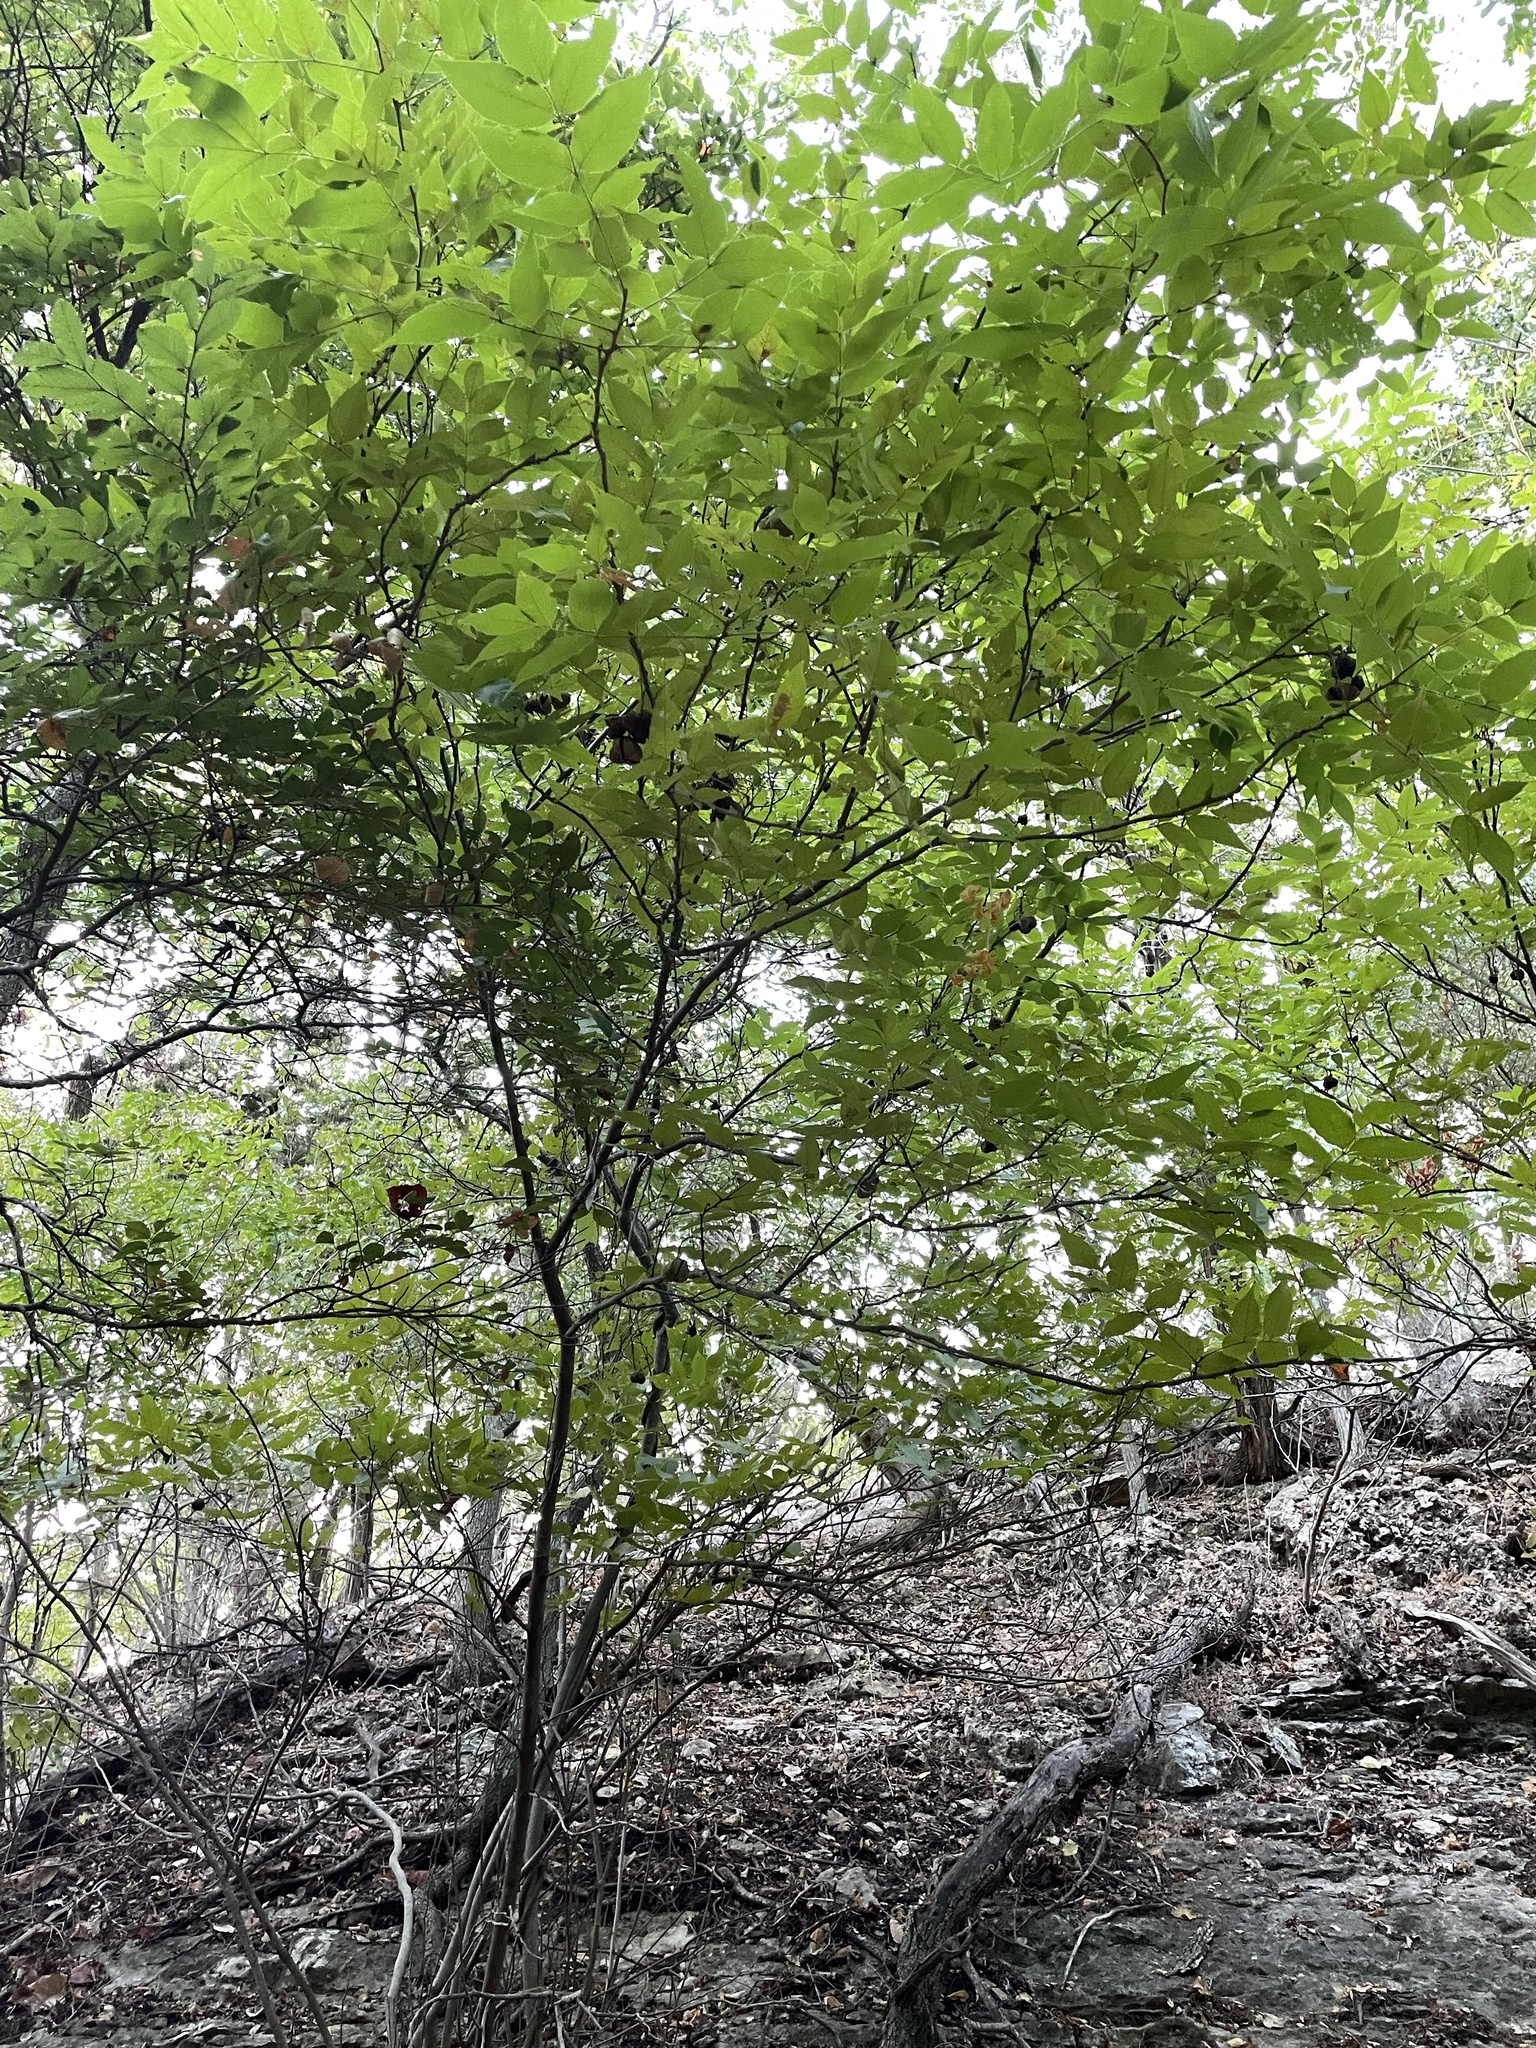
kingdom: Plantae
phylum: Tracheophyta
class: Magnoliopsida
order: Sapindales
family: Sapindaceae
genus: Ungnadia
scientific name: Ungnadia speciosa
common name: Texas-buckeye
